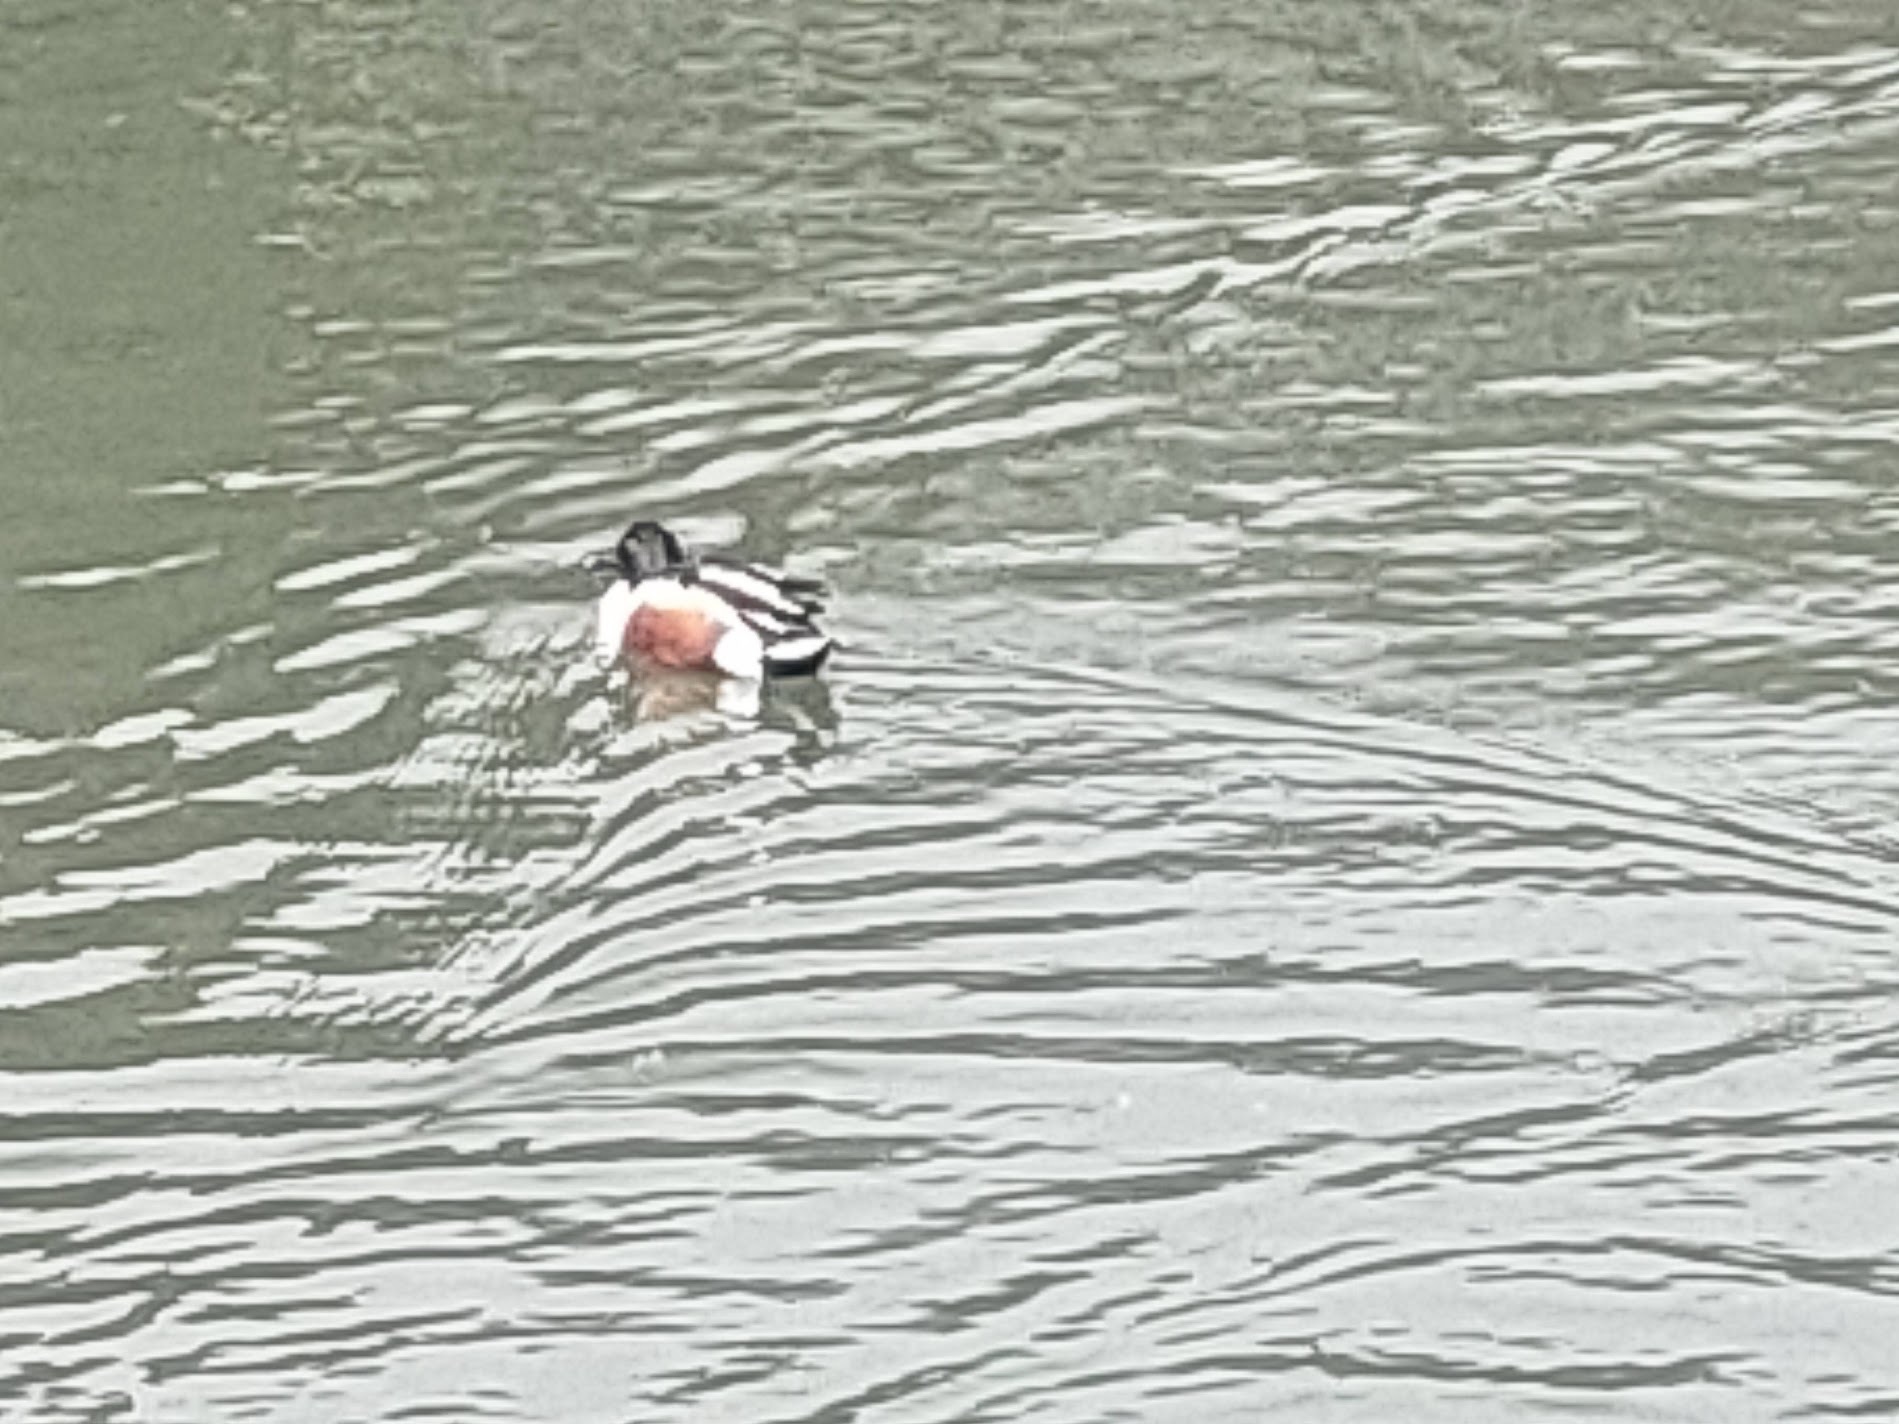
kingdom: Animalia
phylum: Chordata
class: Aves
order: Anseriformes
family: Anatidae
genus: Spatula
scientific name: Spatula clypeata
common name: Northern shoveler
